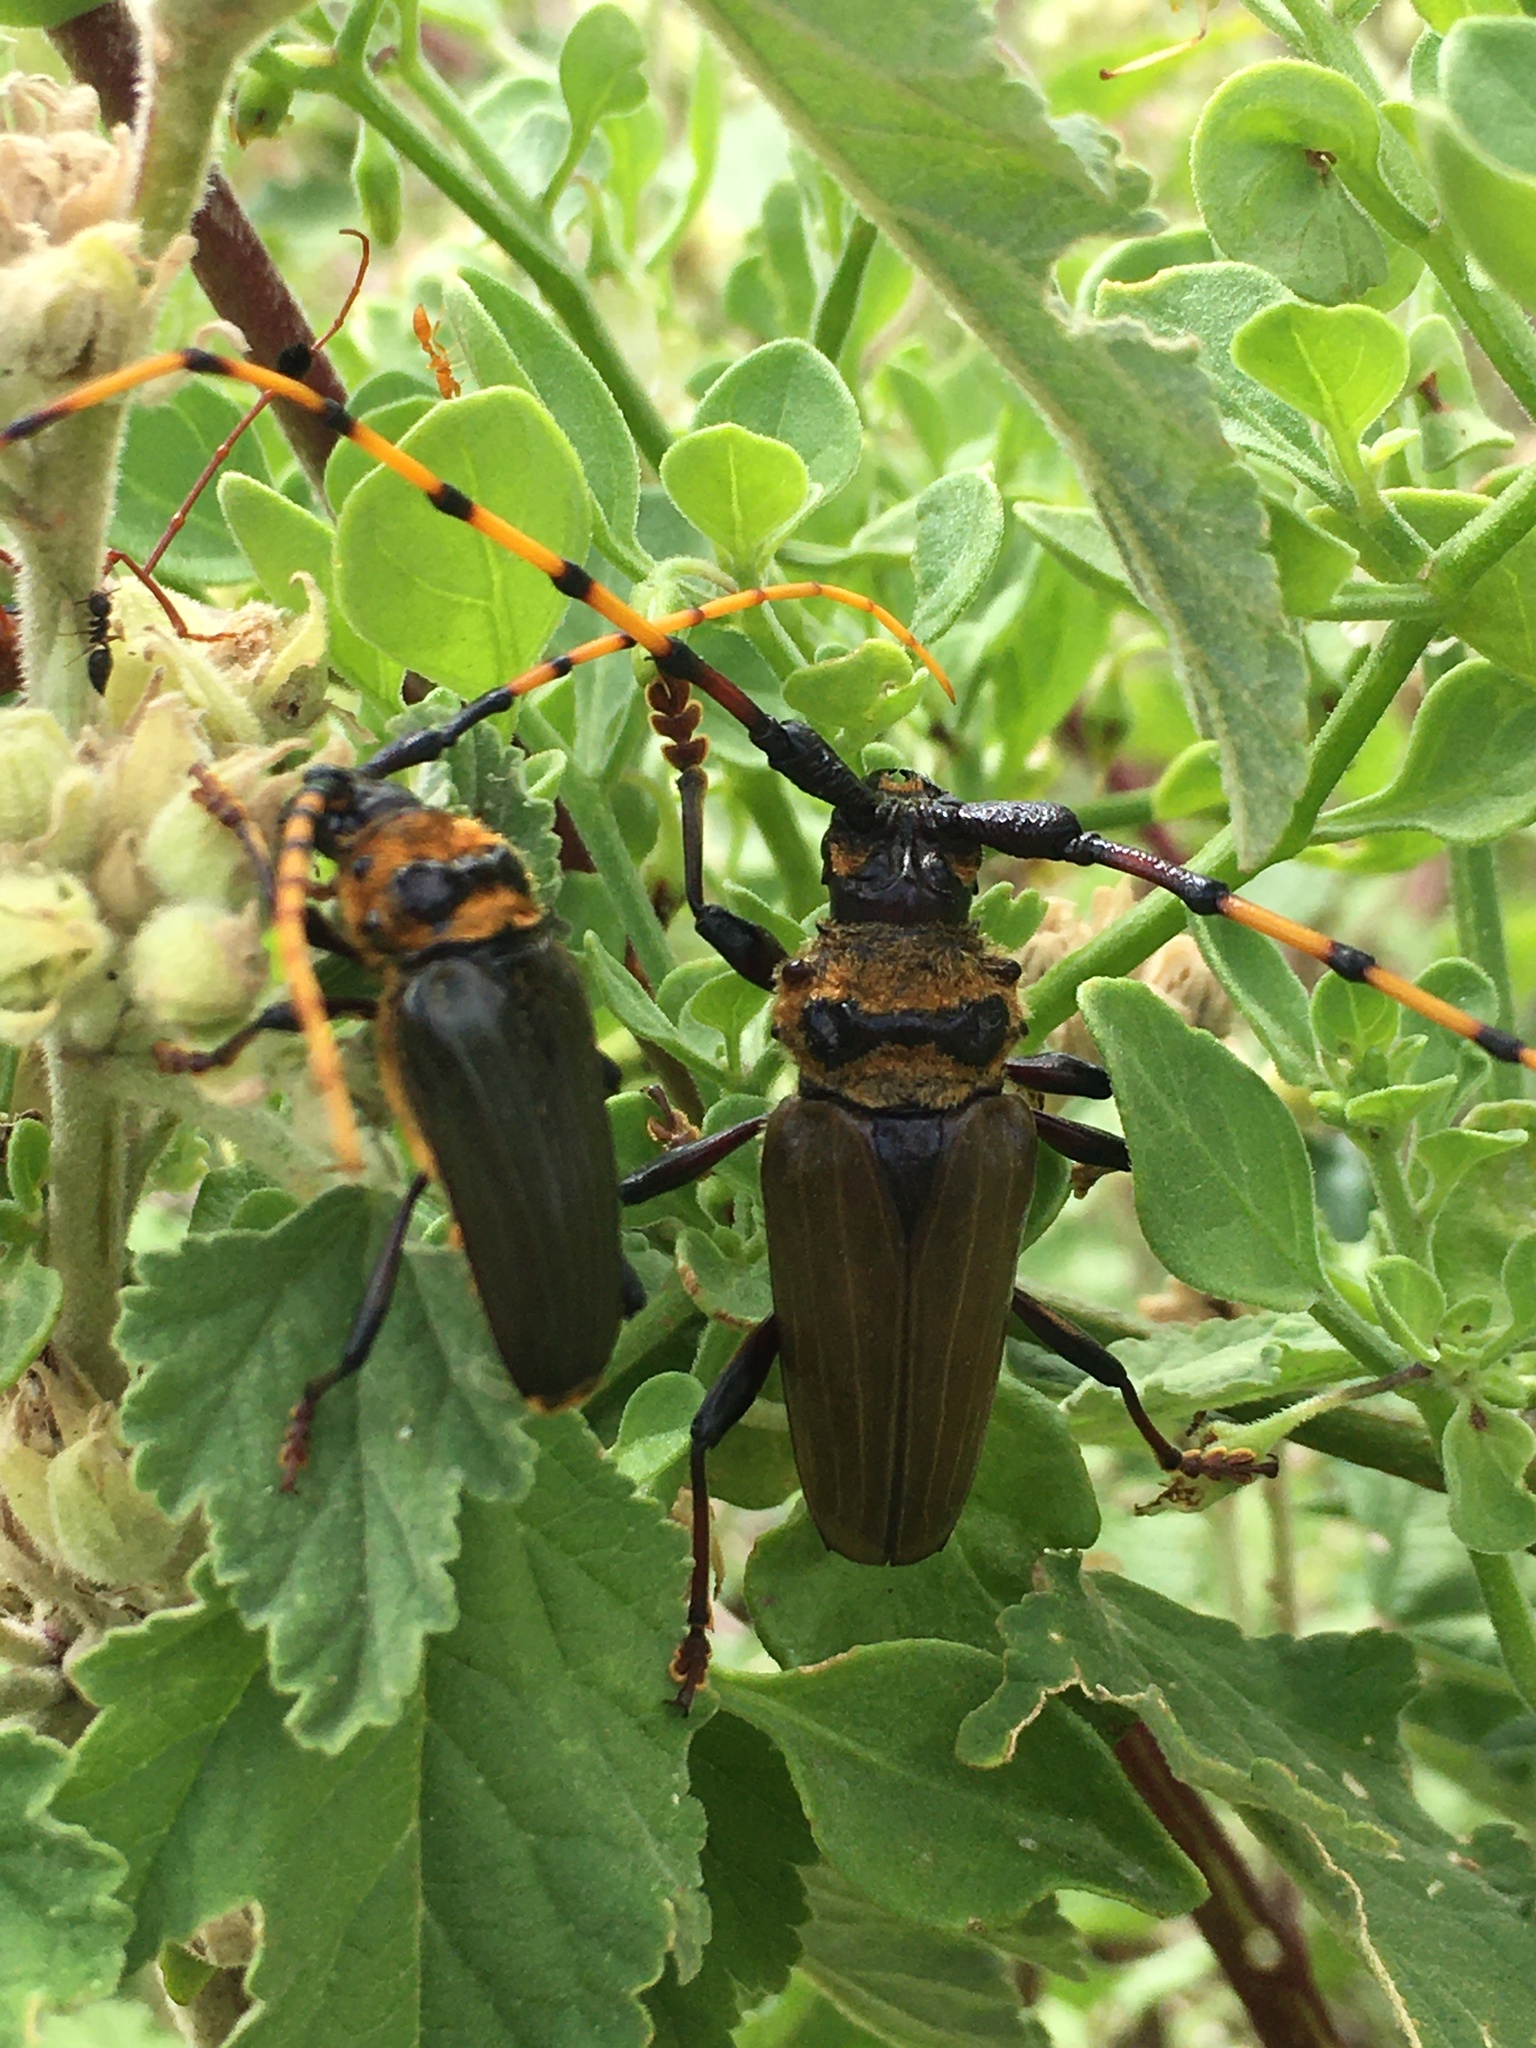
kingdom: Animalia
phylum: Arthropoda
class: Insecta
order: Coleoptera
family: Cerambycidae
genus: Retrachydes
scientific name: Retrachydes thoracicus
